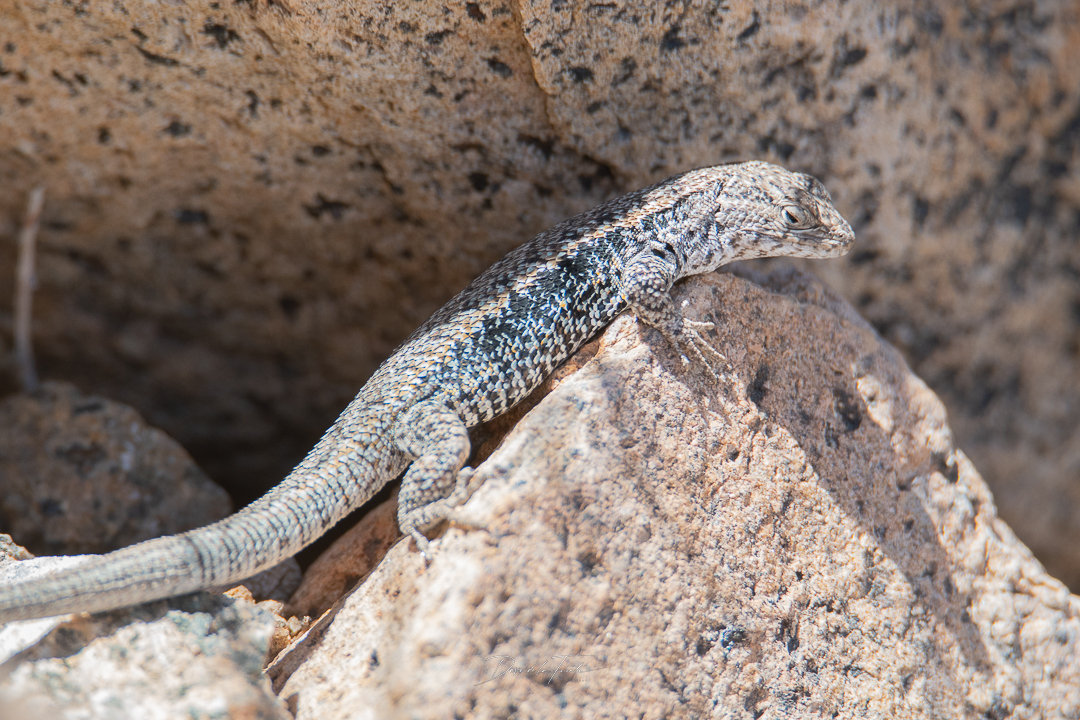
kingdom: Animalia
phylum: Chordata
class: Squamata
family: Liolaemidae
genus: Liolaemus
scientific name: Liolaemus platei
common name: Braided tree iguana
